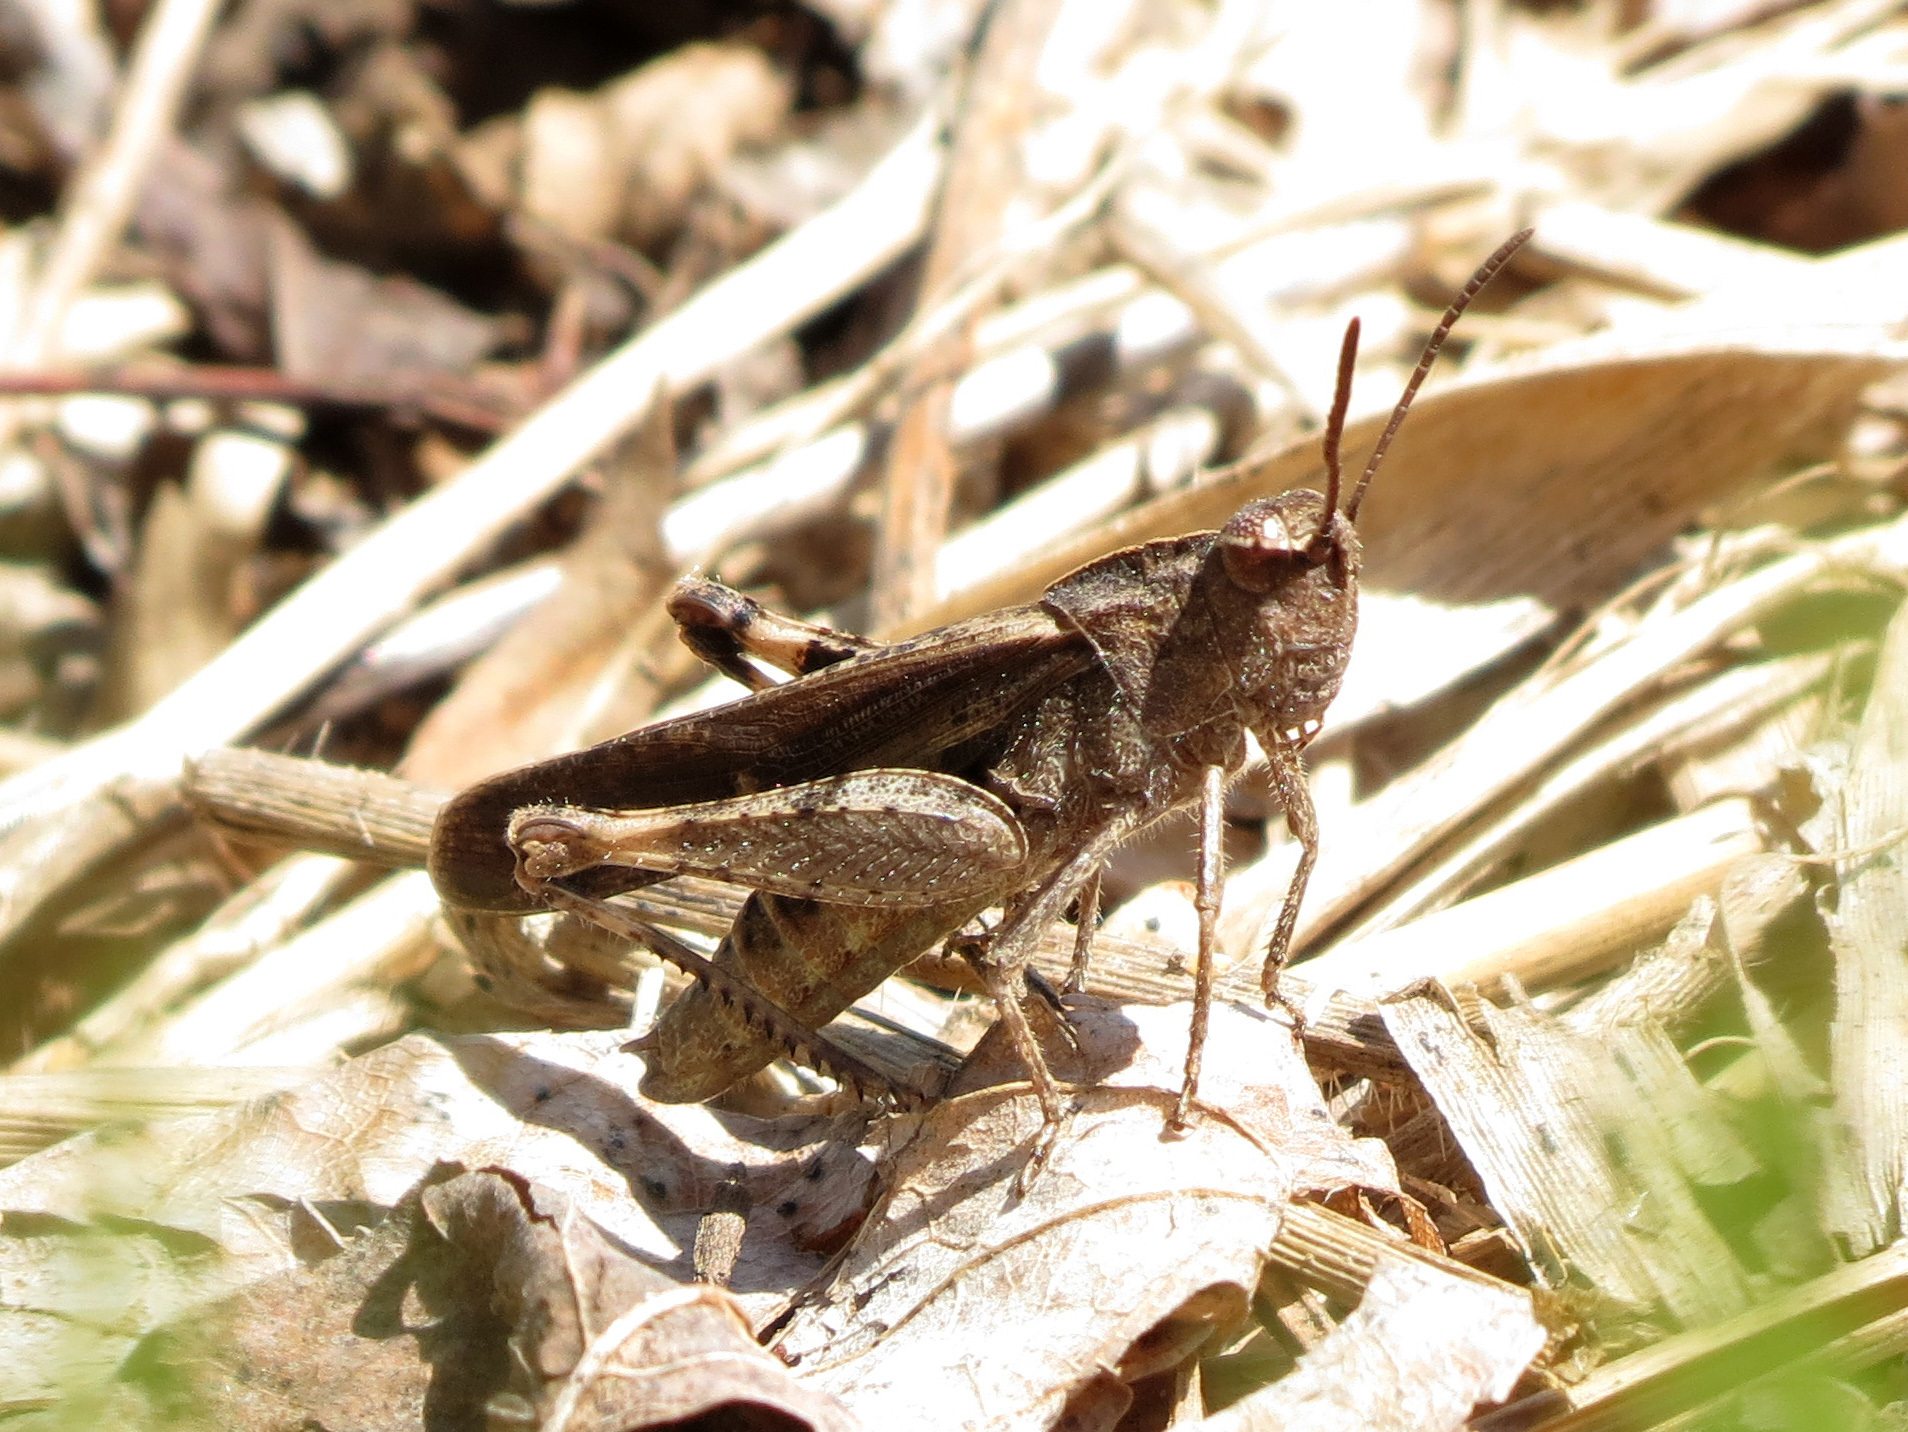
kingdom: Animalia
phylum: Arthropoda
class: Insecta
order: Orthoptera
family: Acrididae
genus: Chortophaga
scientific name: Chortophaga viridifasciata
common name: Green-striped grasshopper
